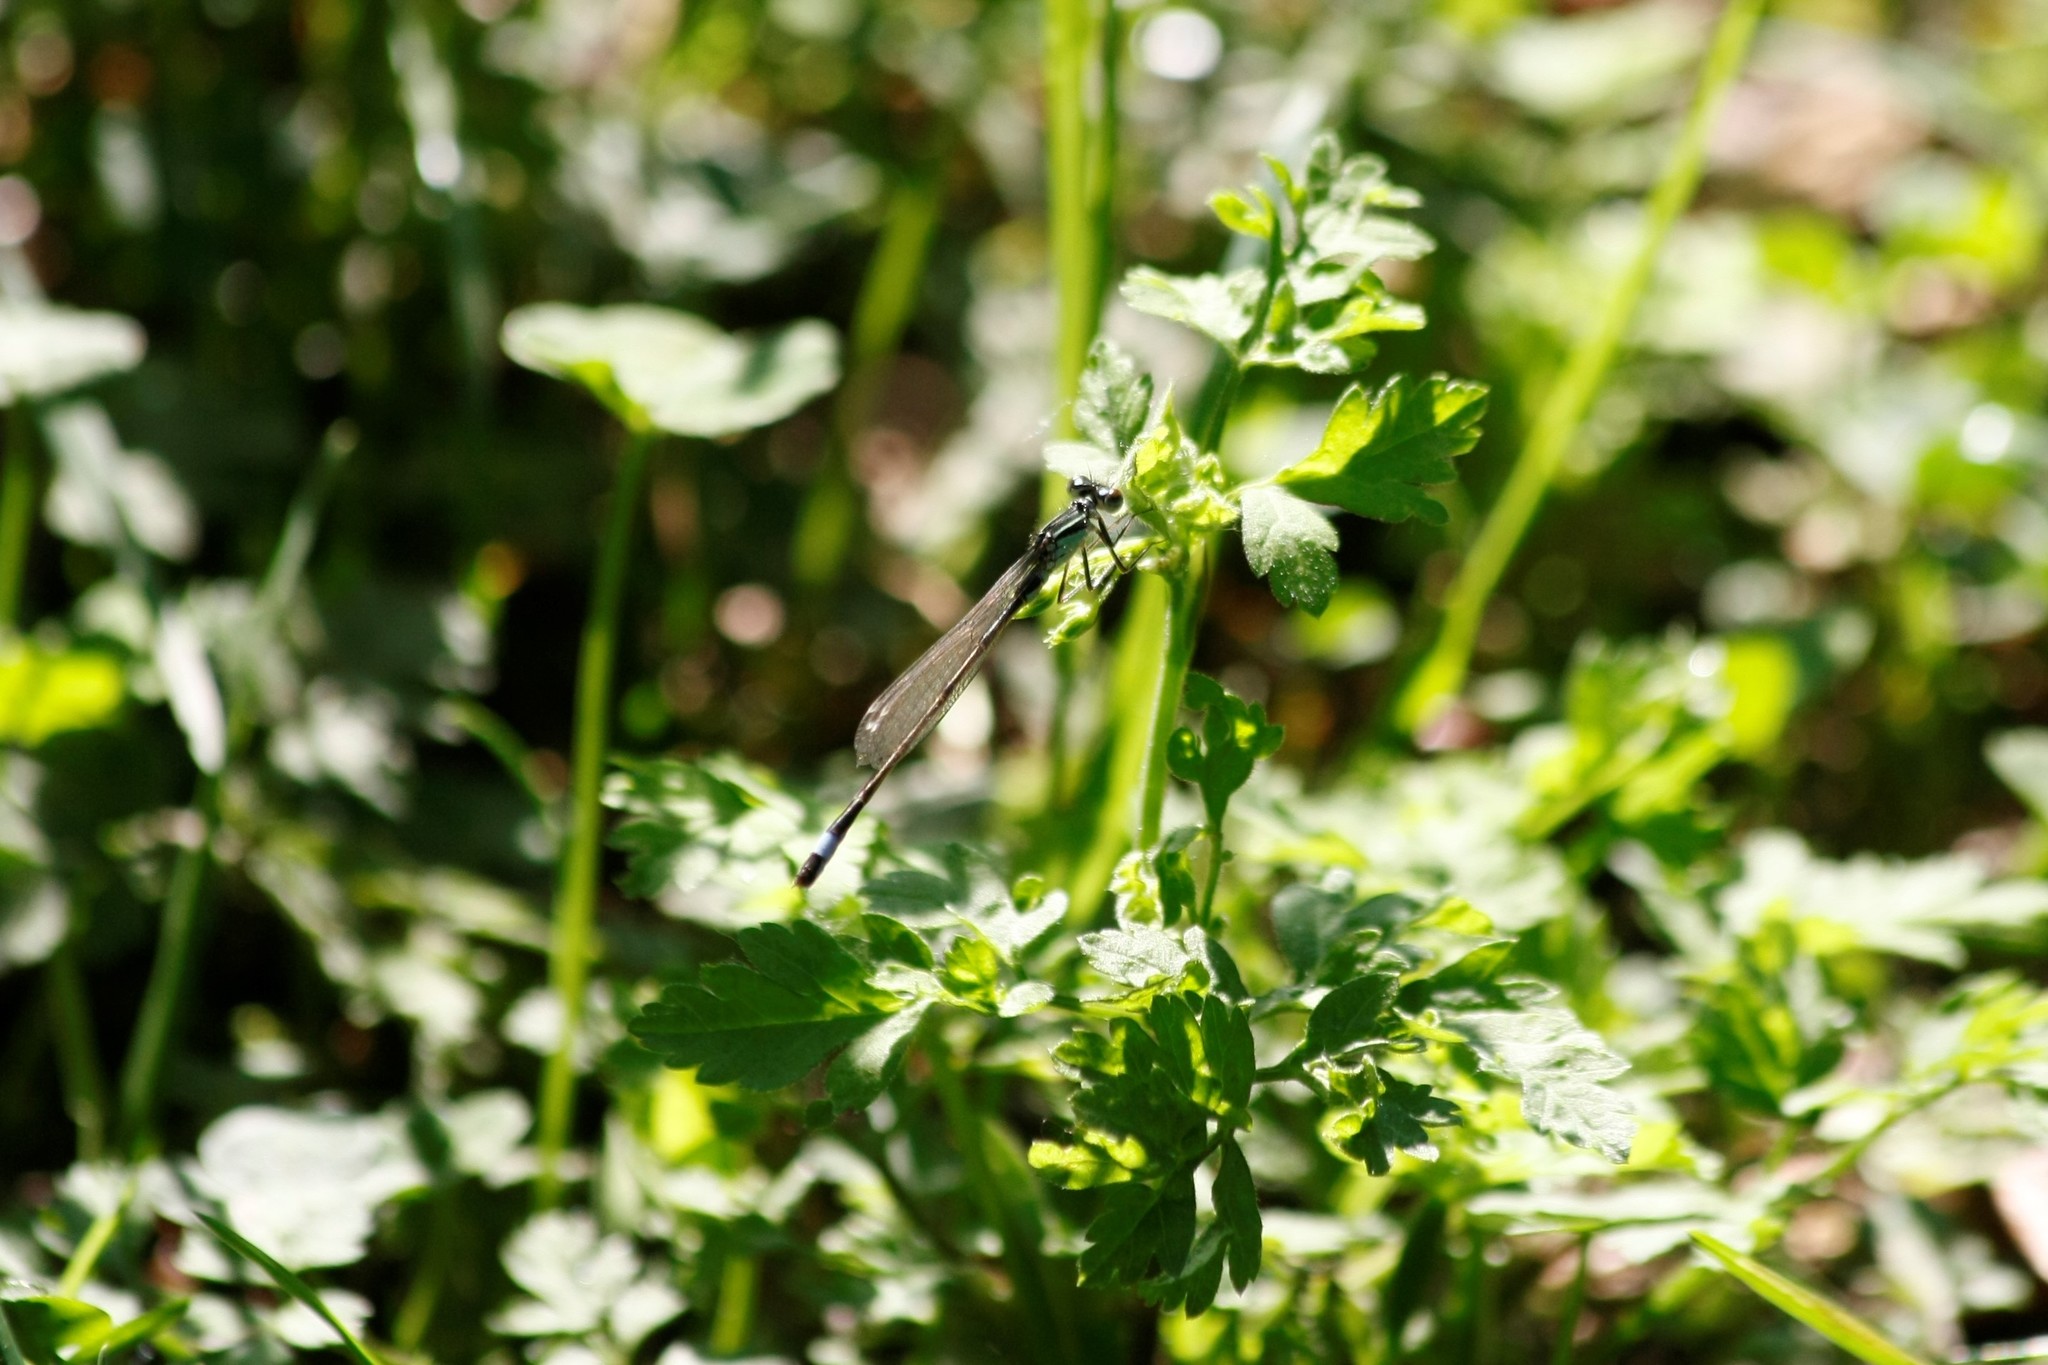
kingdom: Animalia
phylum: Arthropoda
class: Insecta
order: Odonata
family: Coenagrionidae
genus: Ischnura
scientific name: Ischnura elegans
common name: Blue-tailed damselfly
